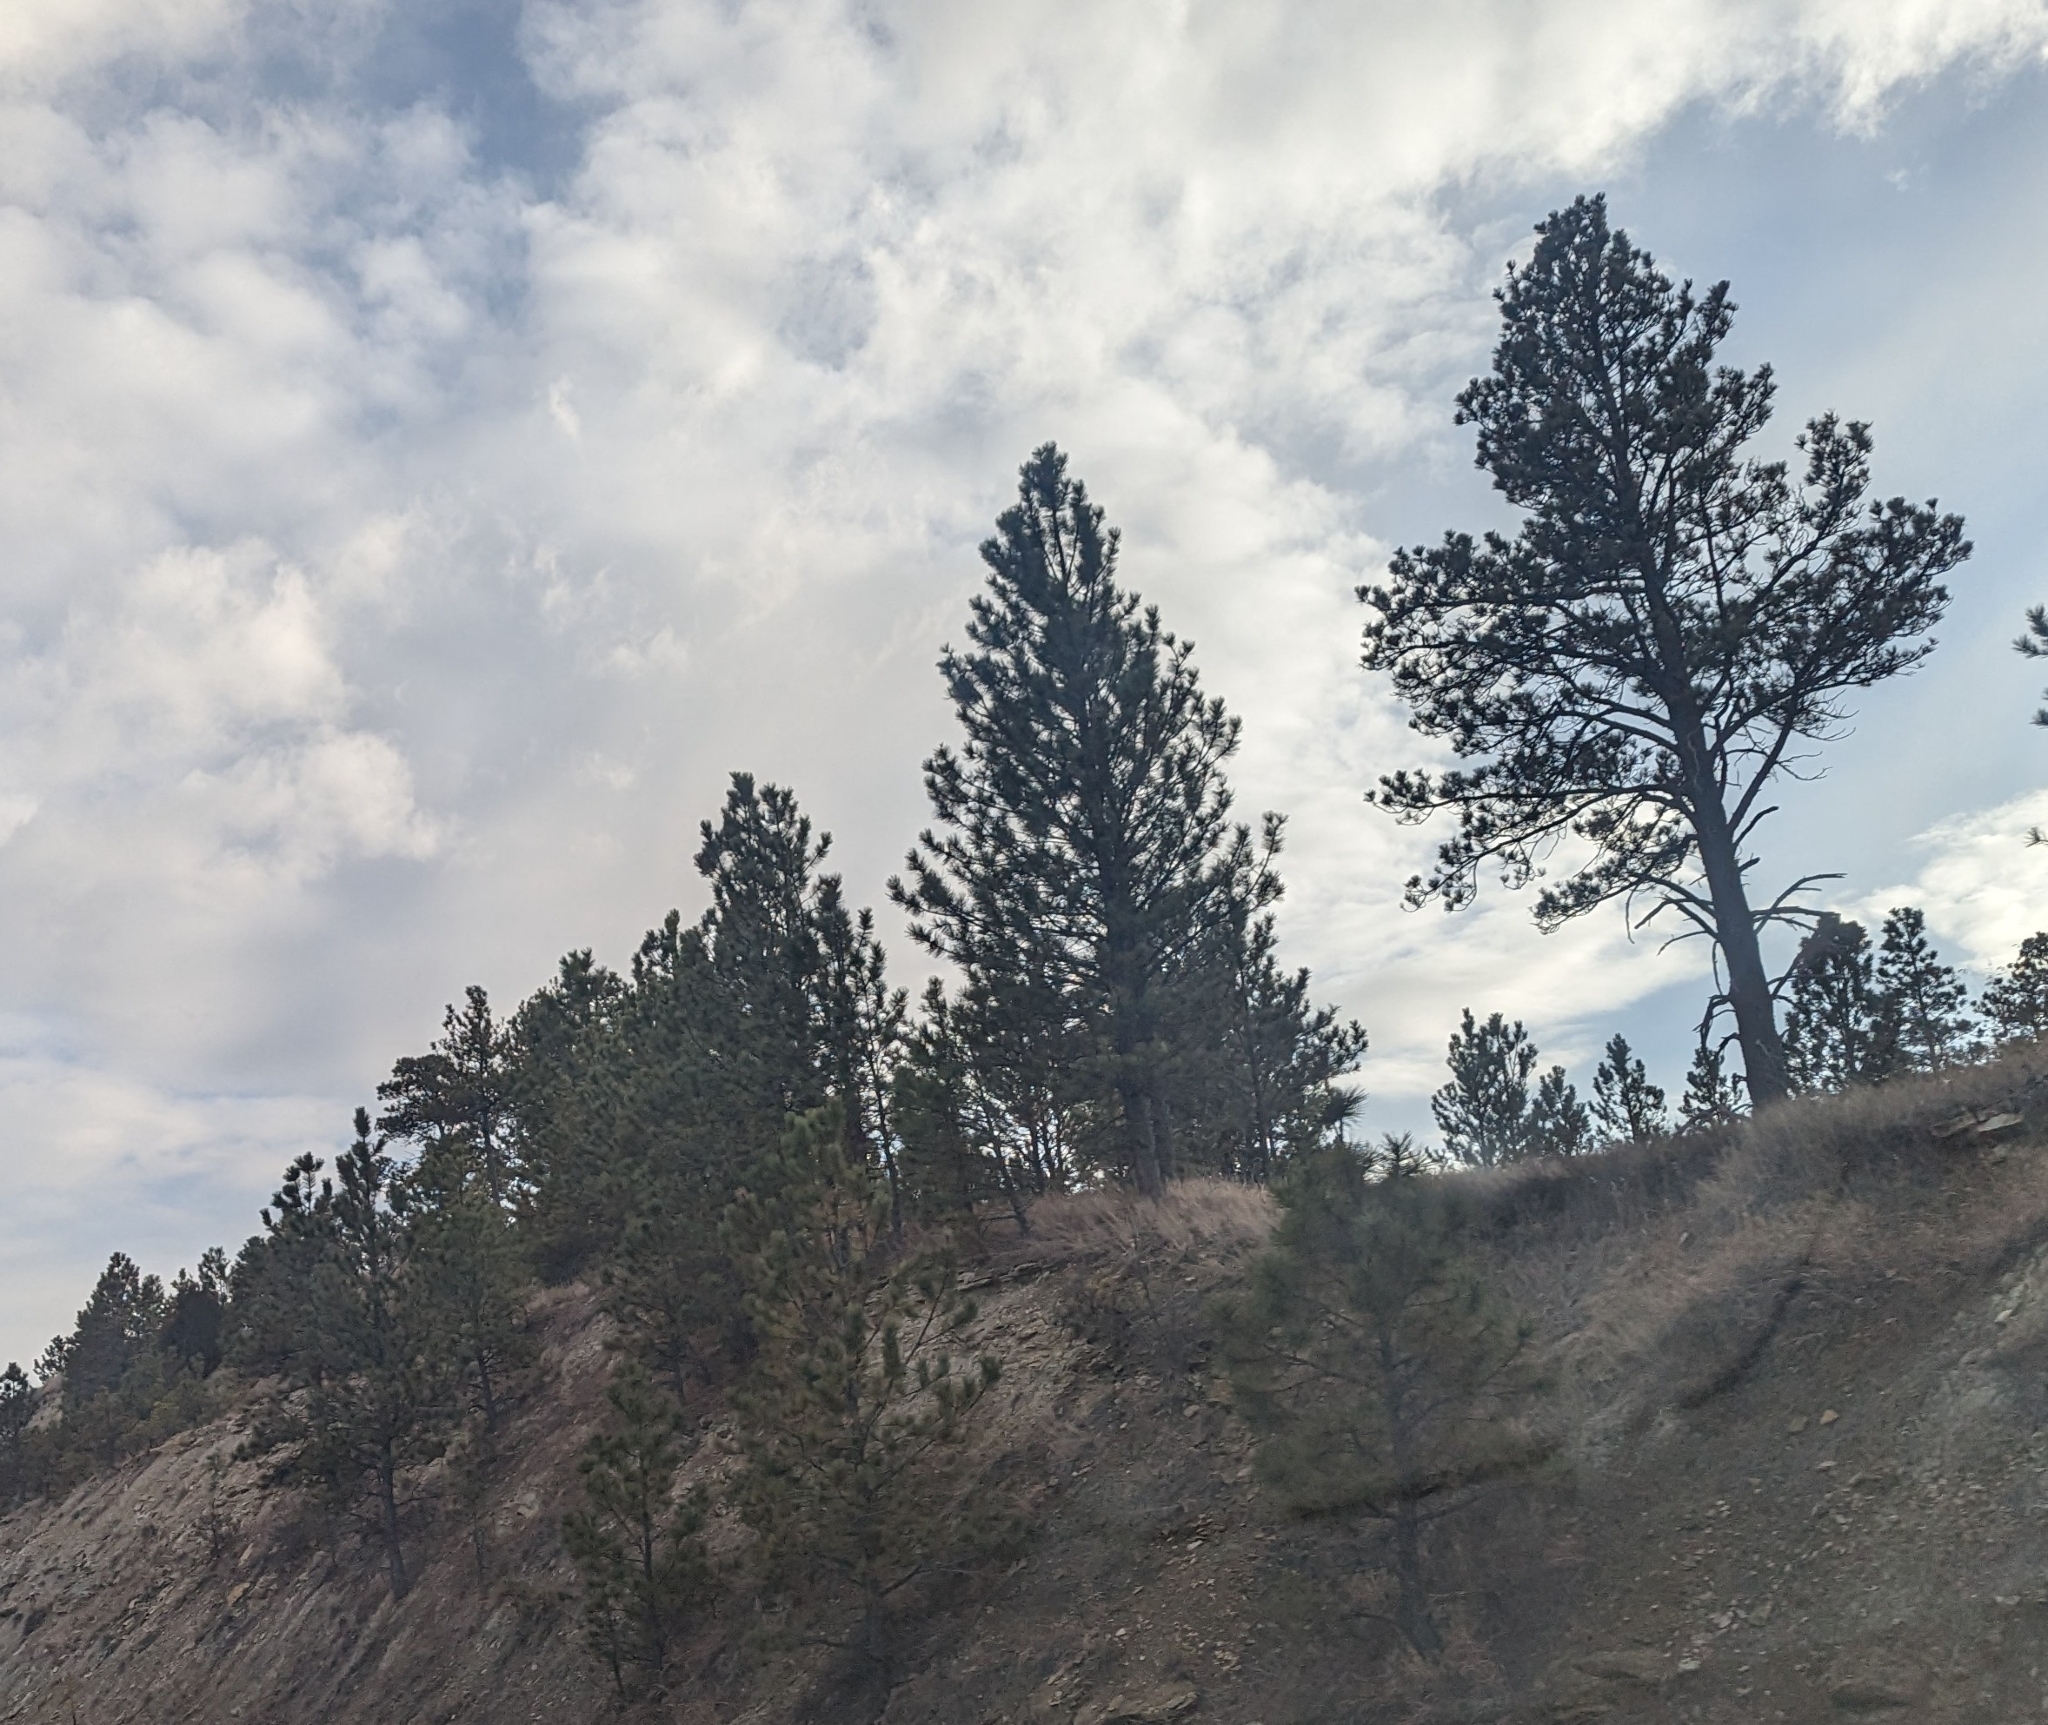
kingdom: Plantae
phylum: Tracheophyta
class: Pinopsida
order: Pinales
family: Pinaceae
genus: Pinus
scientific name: Pinus ponderosa
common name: Western yellow-pine
